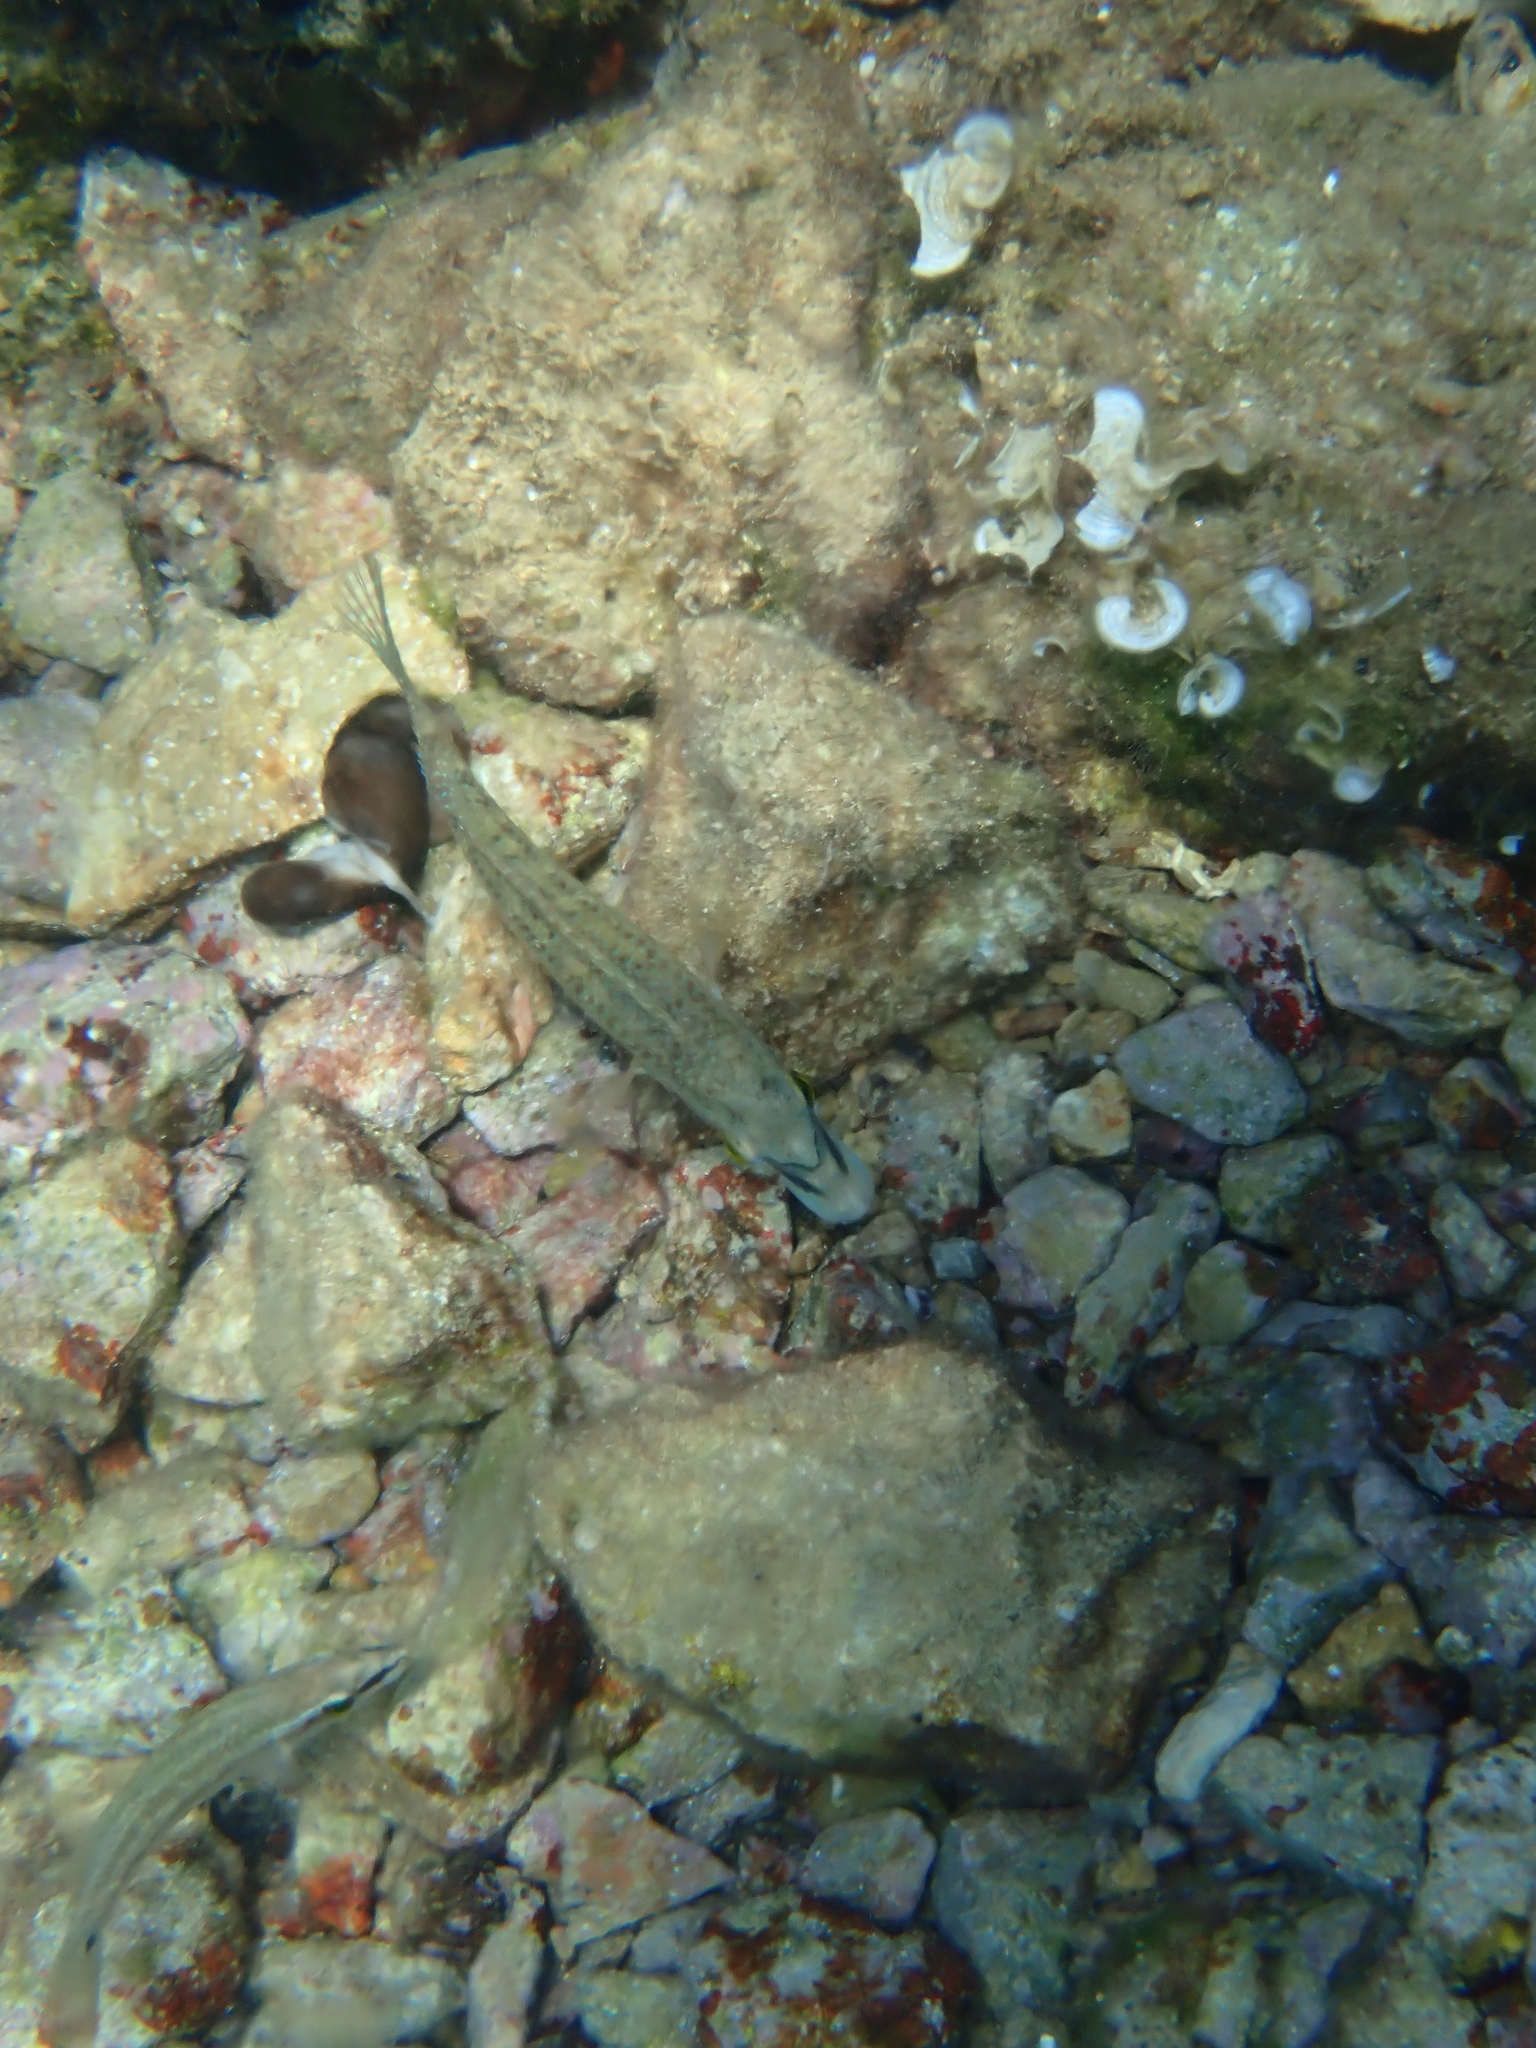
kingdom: Animalia
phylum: Chordata
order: Perciformes
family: Labridae
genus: Symphodus
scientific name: Symphodus tinca
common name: Peacock wrasse
